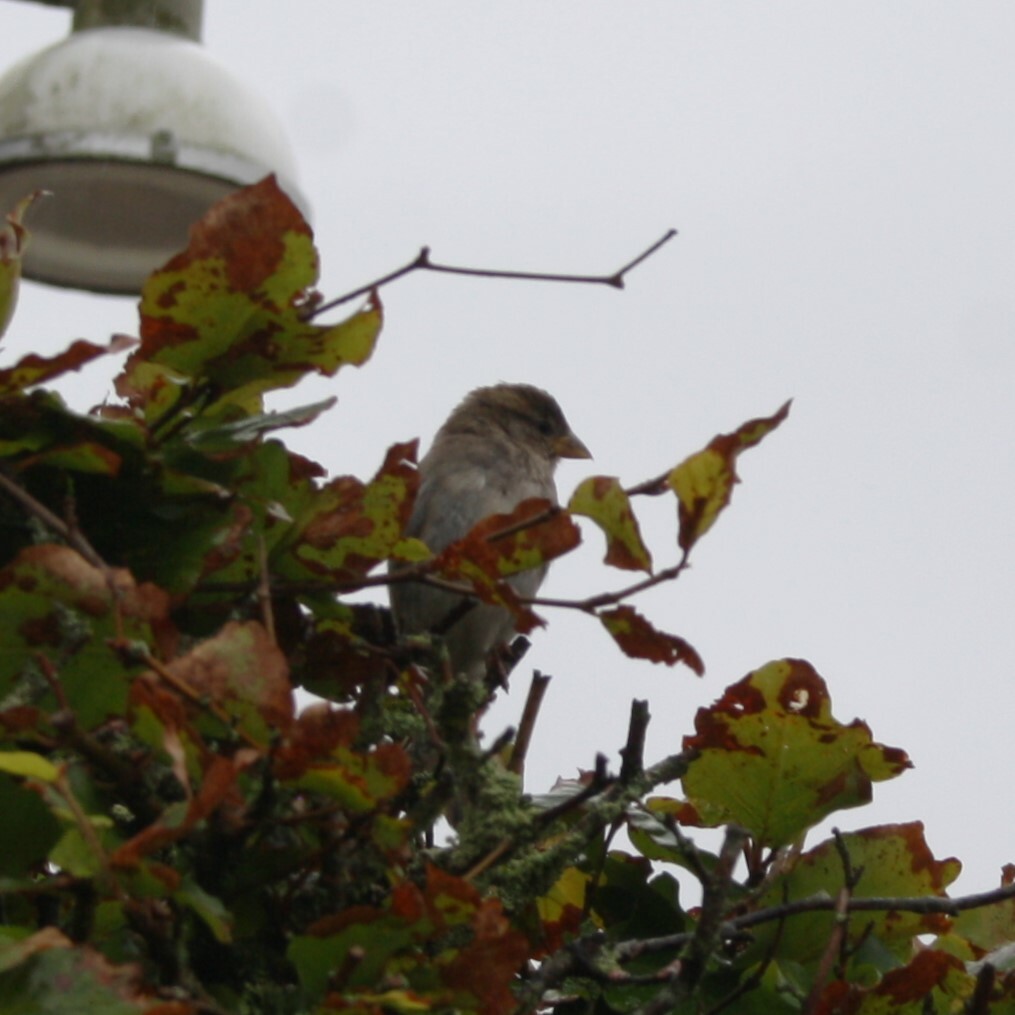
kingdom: Animalia
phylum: Chordata
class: Aves
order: Passeriformes
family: Passeridae
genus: Passer
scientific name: Passer domesticus
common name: House sparrow
